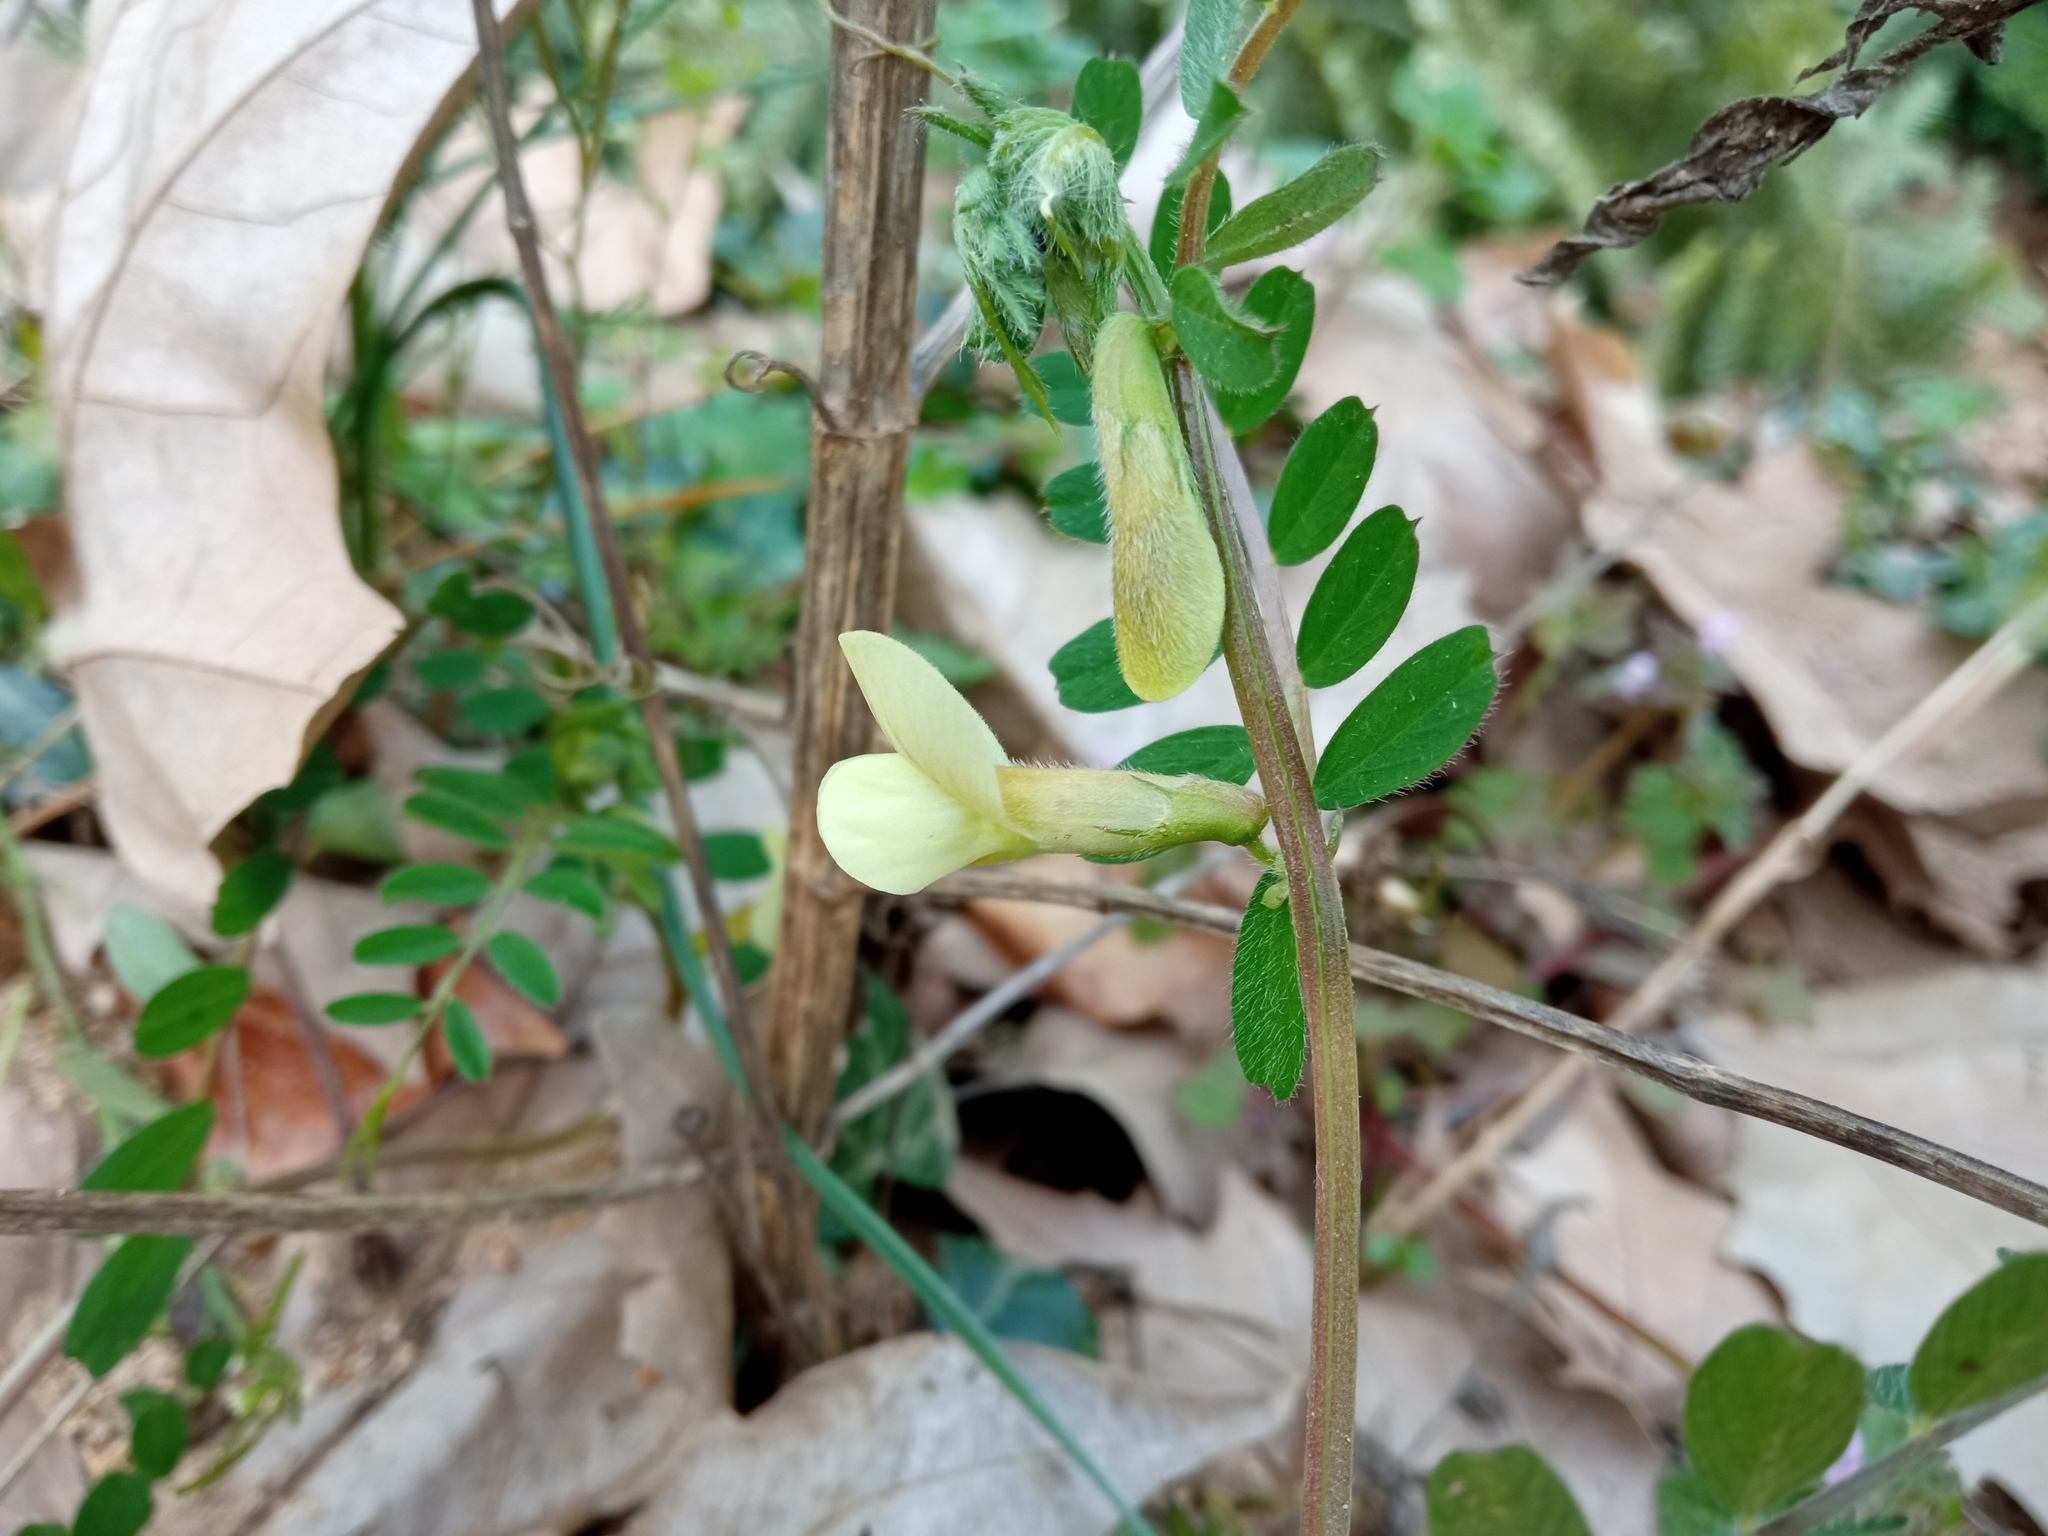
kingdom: Plantae
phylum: Tracheophyta
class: Magnoliopsida
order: Fabales
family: Fabaceae
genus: Vicia
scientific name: Vicia hybrida
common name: Hairy yellow vetch
